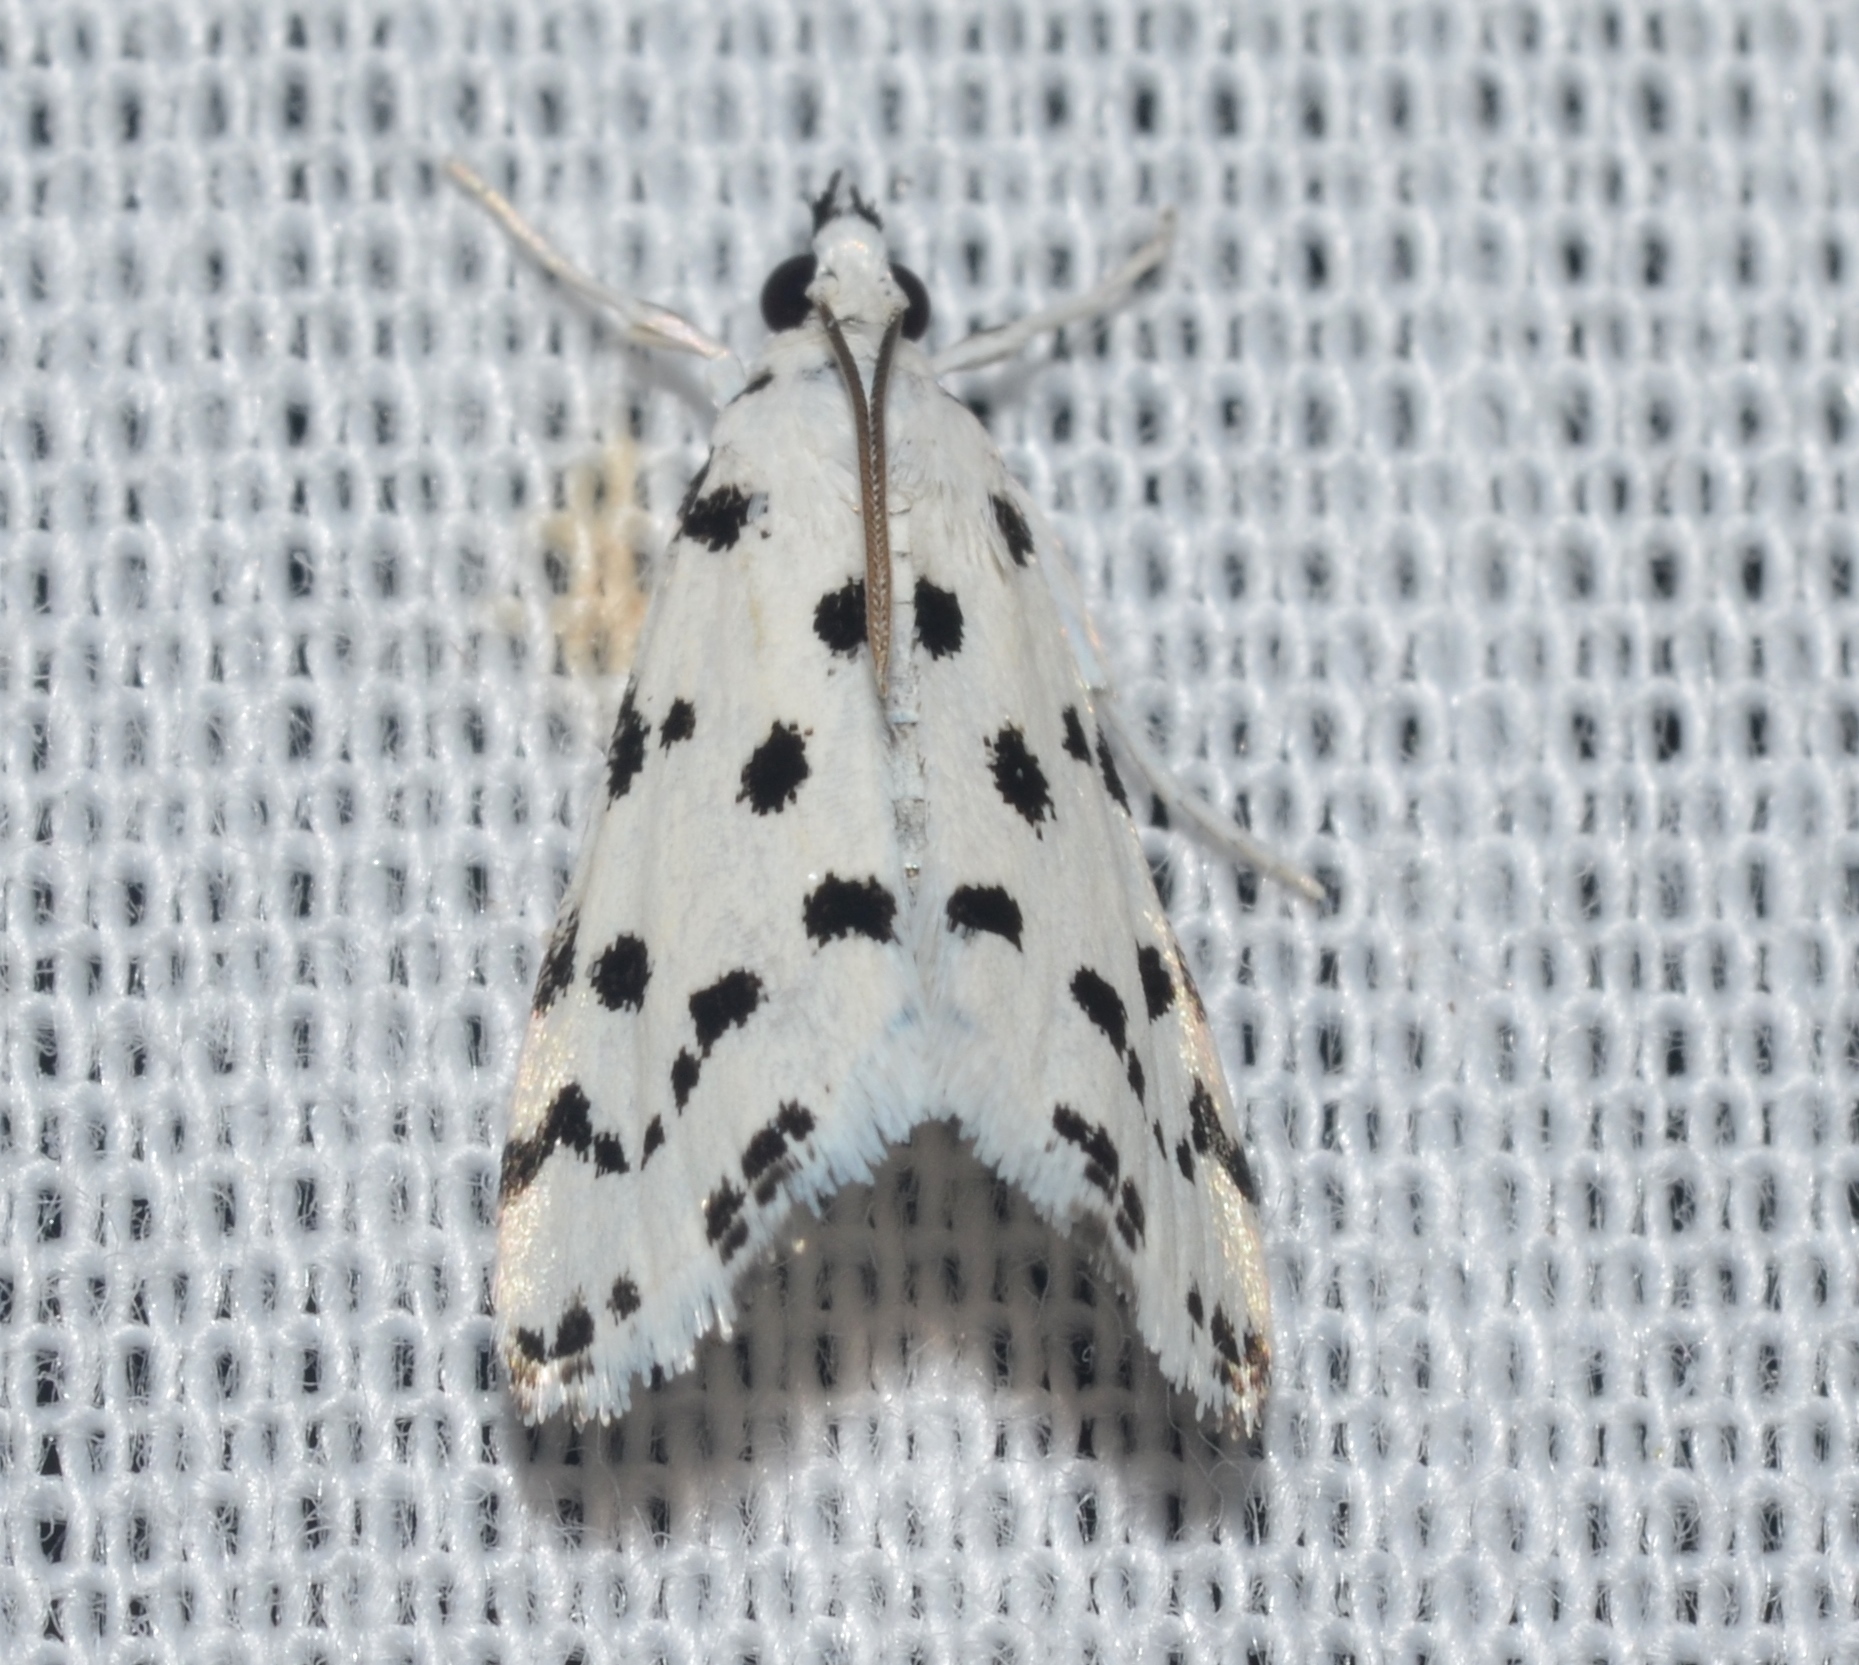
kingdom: Animalia
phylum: Arthropoda
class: Insecta
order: Lepidoptera
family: Crambidae
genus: Eustixia
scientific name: Eustixia pupula
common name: American cabbage pearl
